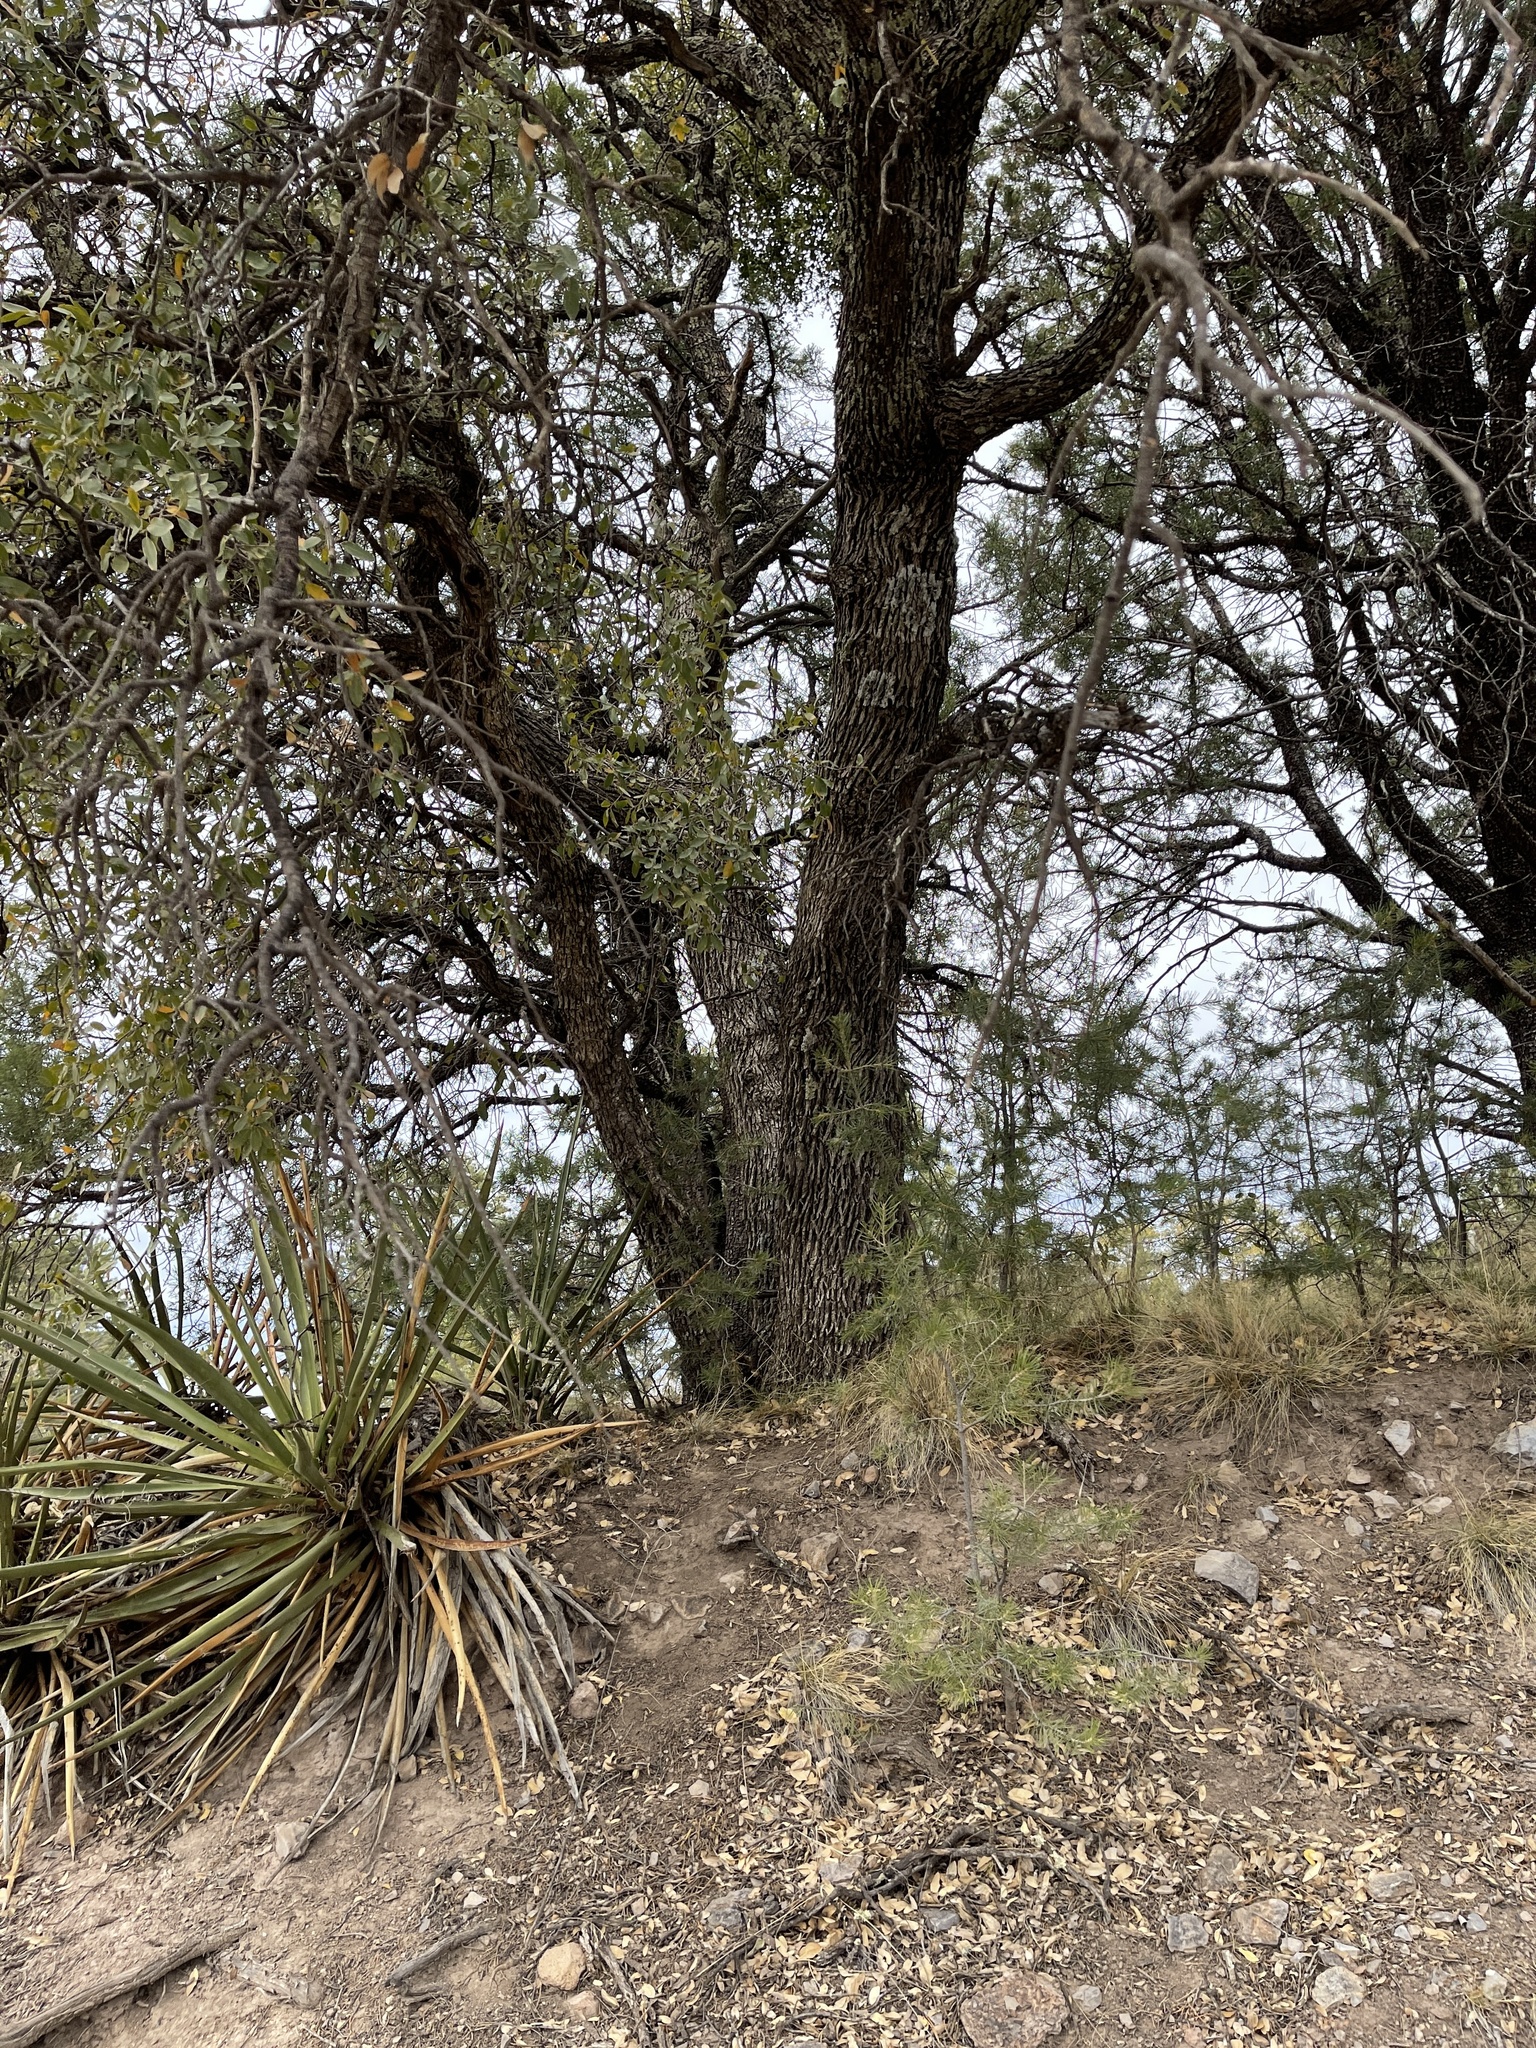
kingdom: Plantae
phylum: Tracheophyta
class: Magnoliopsida
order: Fagales
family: Fagaceae
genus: Quercus
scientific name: Quercus arizonica
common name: Arizona white oak
